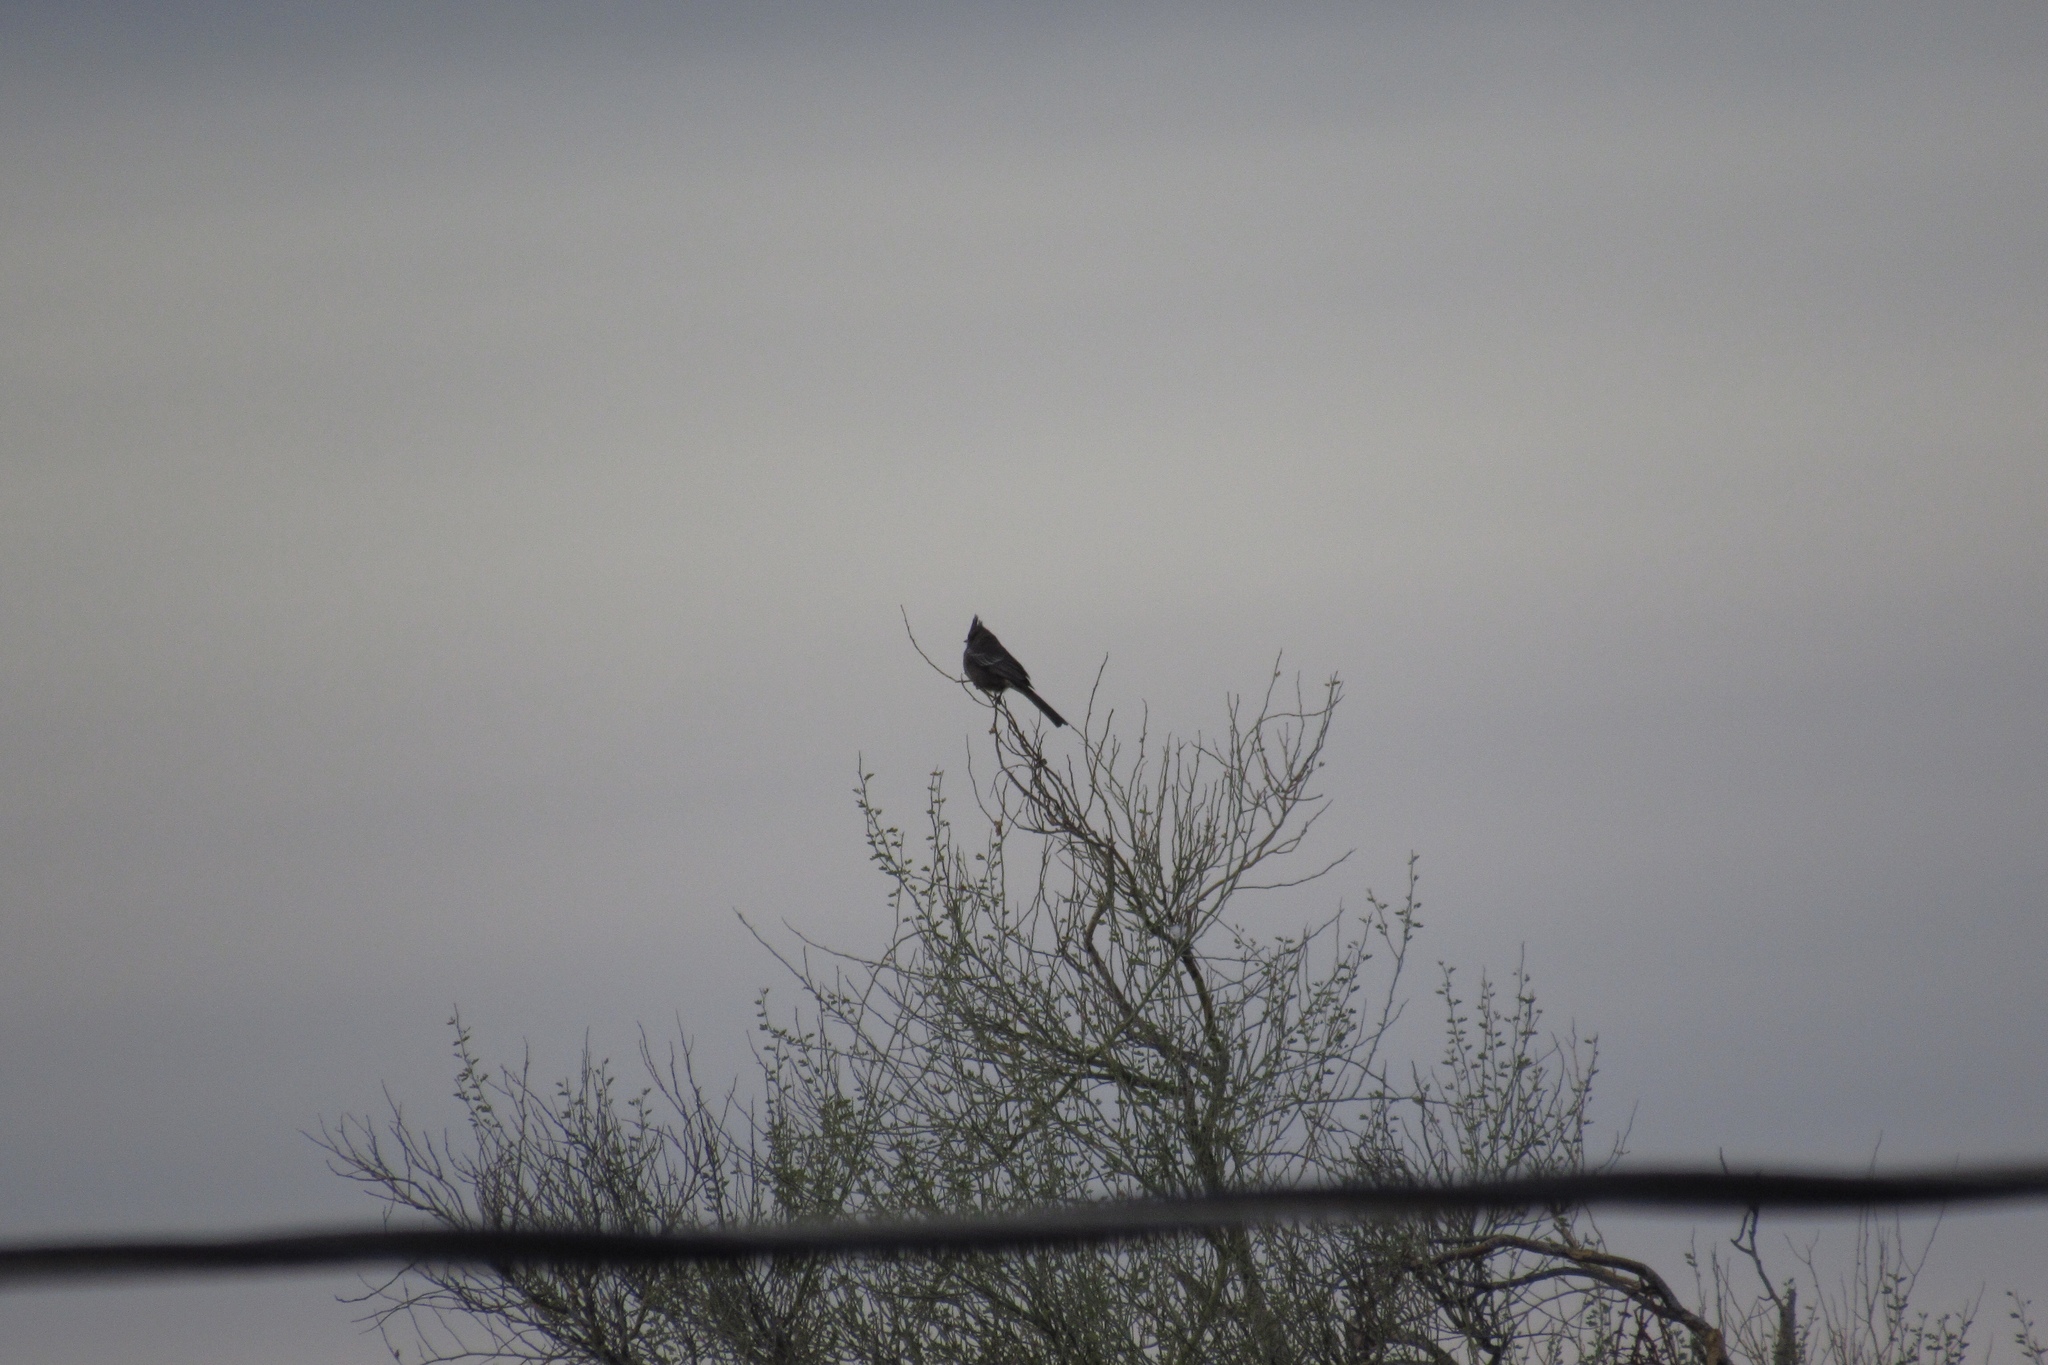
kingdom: Animalia
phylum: Chordata
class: Aves
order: Passeriformes
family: Ptilogonatidae
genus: Phainopepla
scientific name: Phainopepla nitens
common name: Phainopepla
